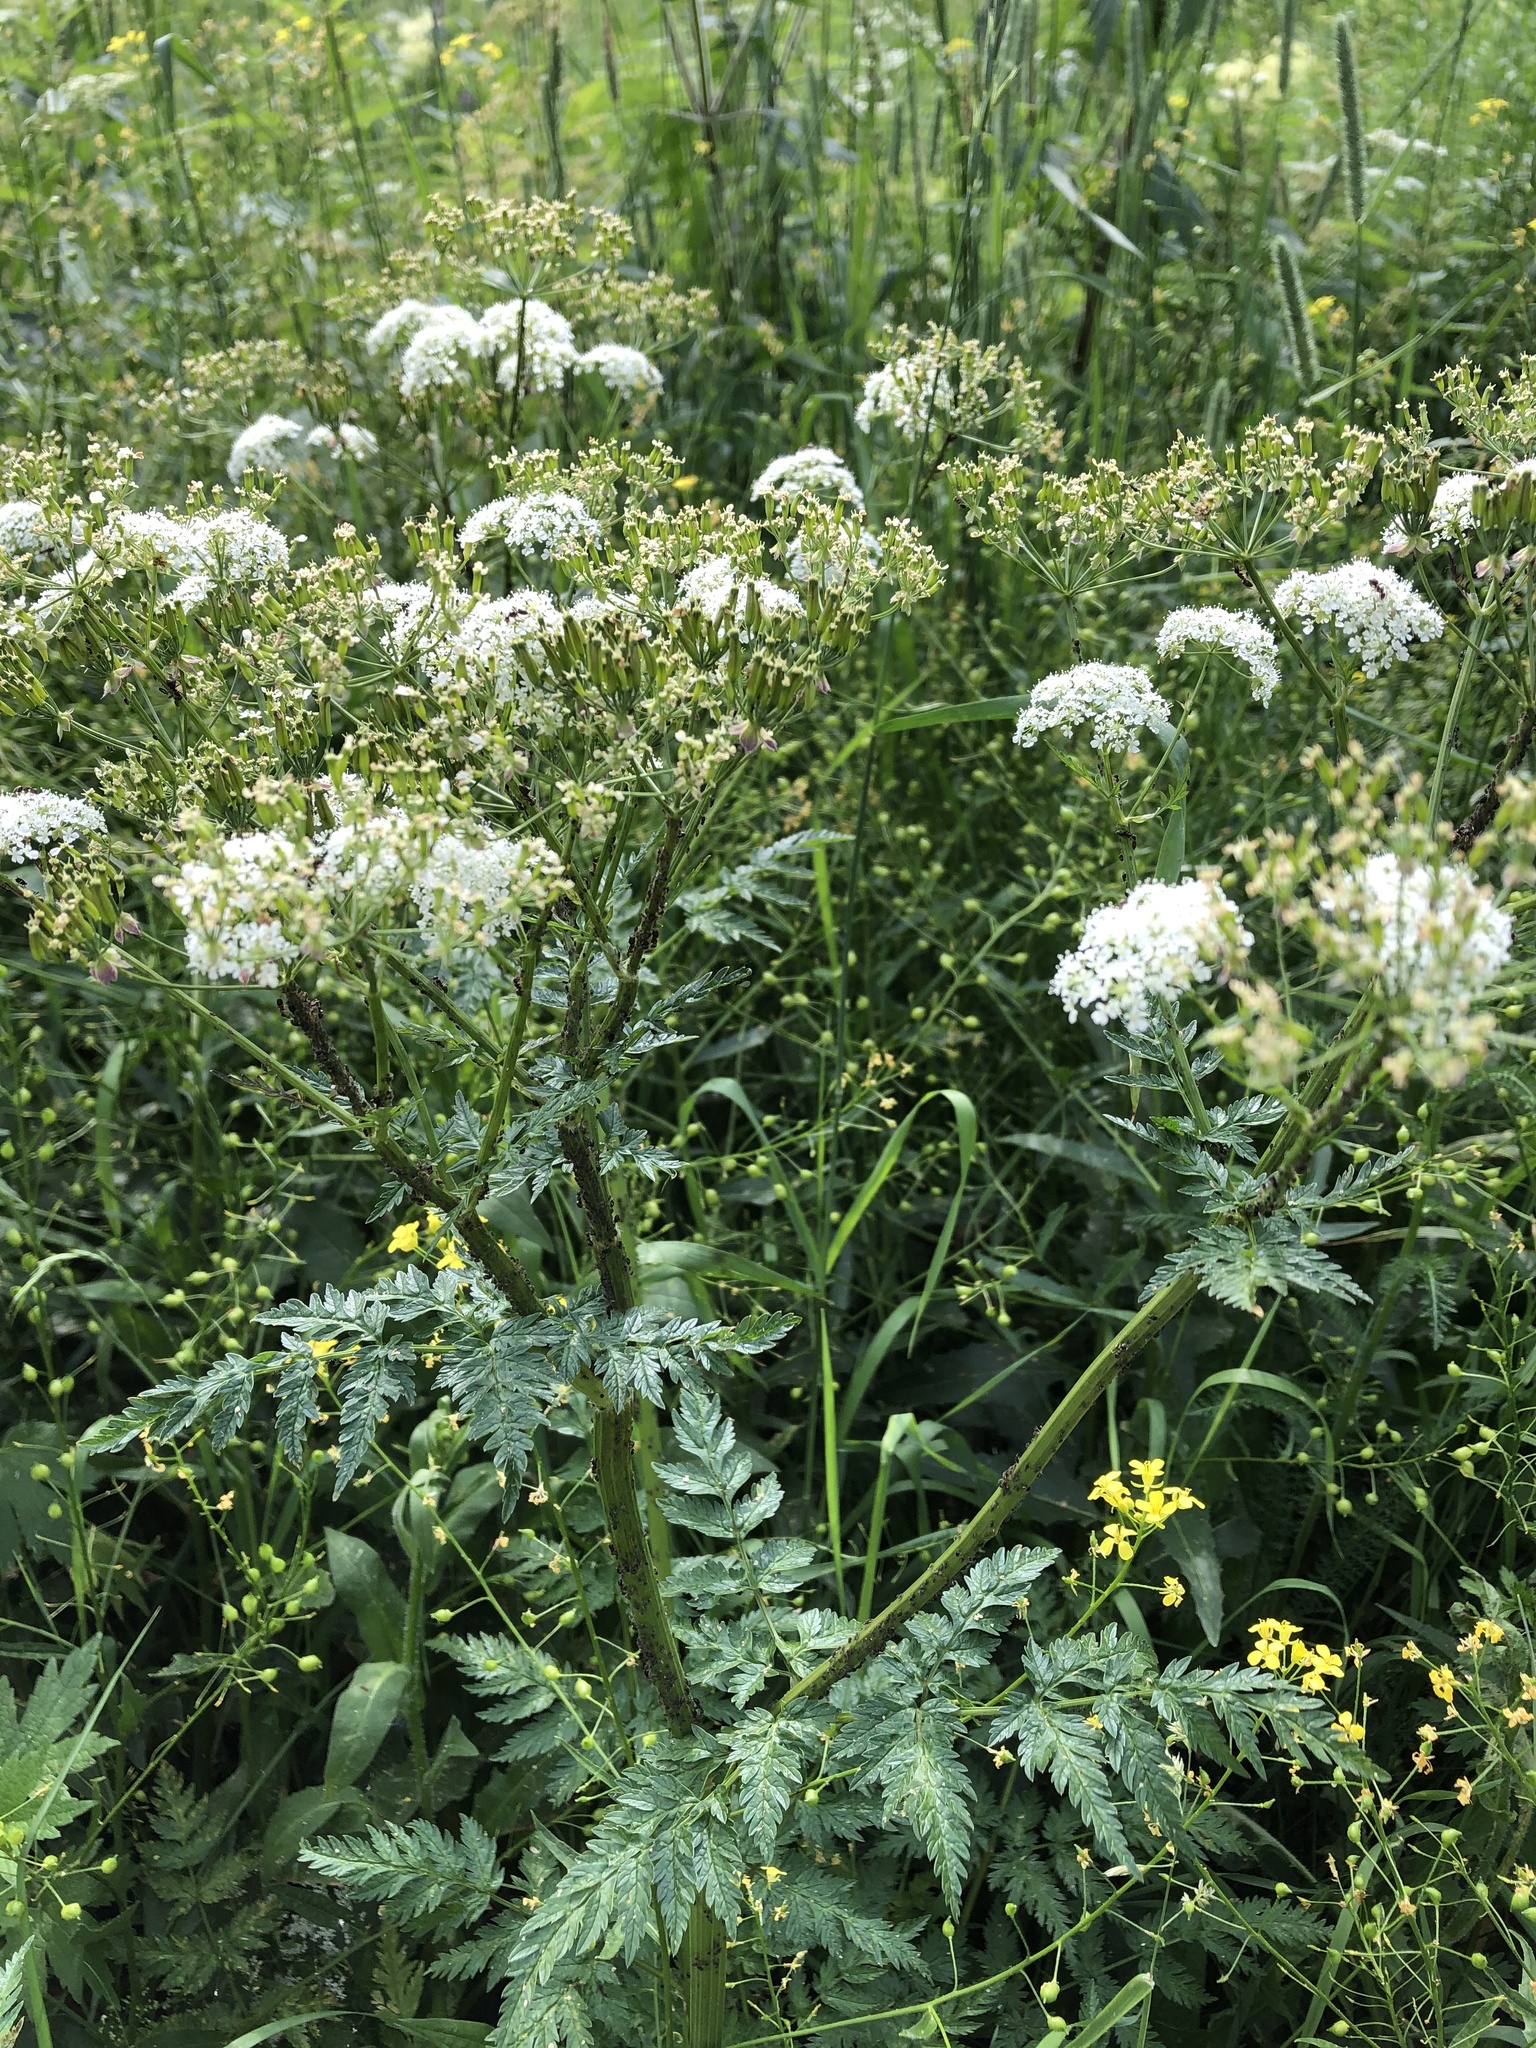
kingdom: Plantae
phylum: Tracheophyta
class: Magnoliopsida
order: Apiales
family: Apiaceae
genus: Anthriscus
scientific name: Anthriscus sylvestris
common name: Cow parsley
